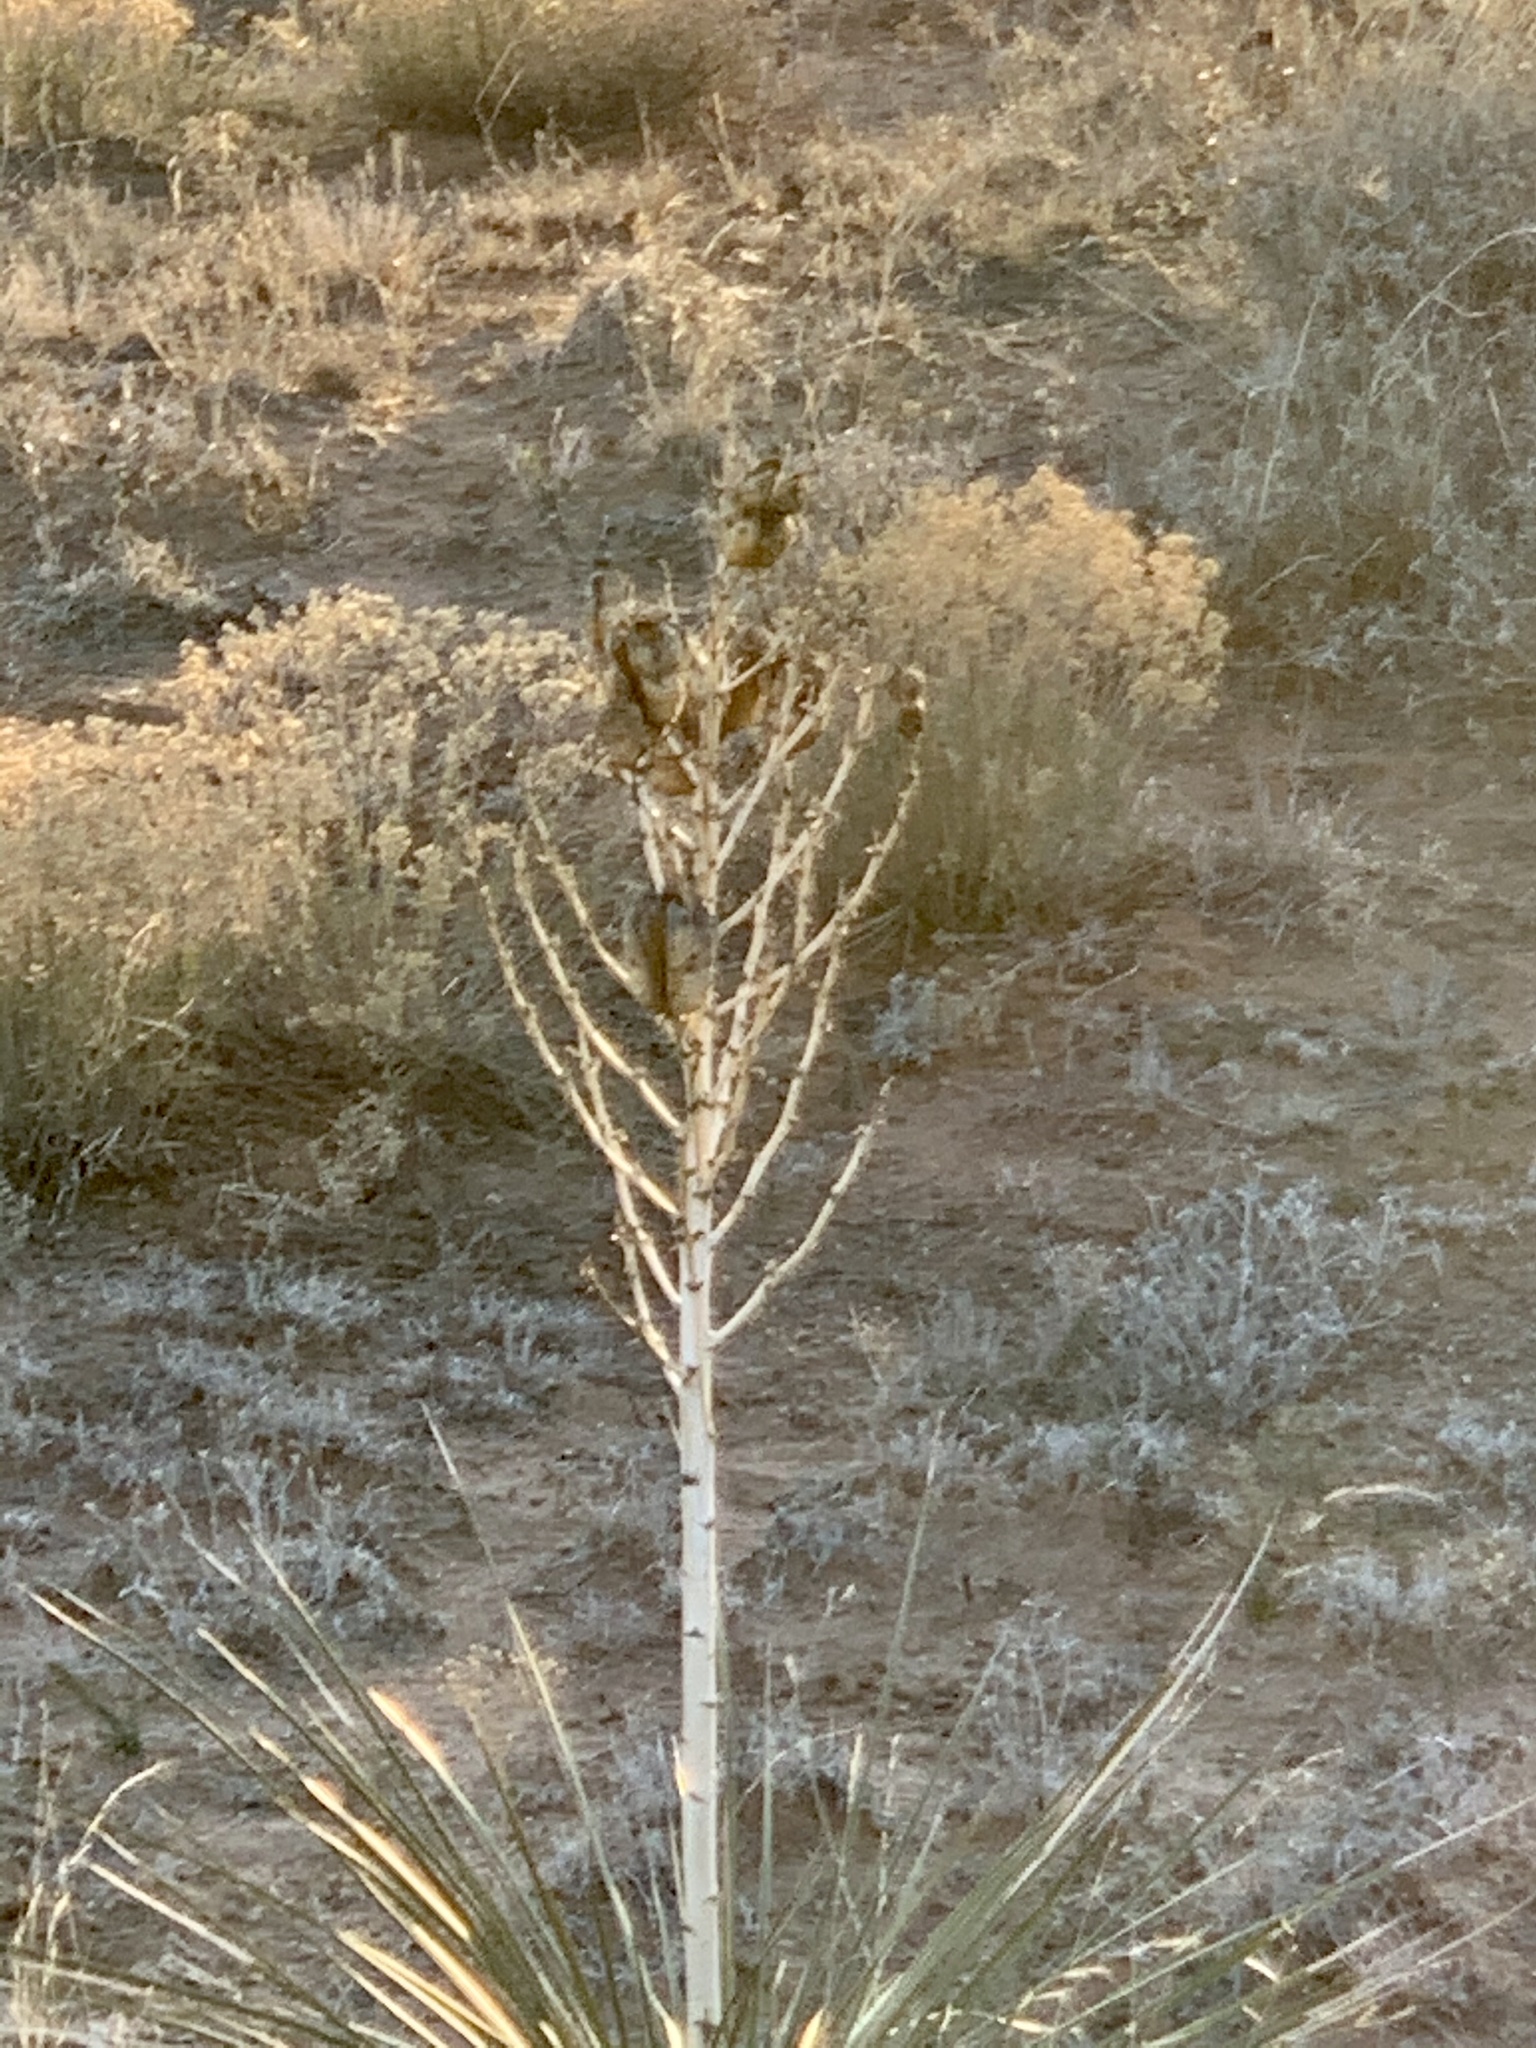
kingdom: Plantae
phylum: Tracheophyta
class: Liliopsida
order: Asparagales
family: Asparagaceae
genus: Yucca
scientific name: Yucca campestris
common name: Plains yucca
